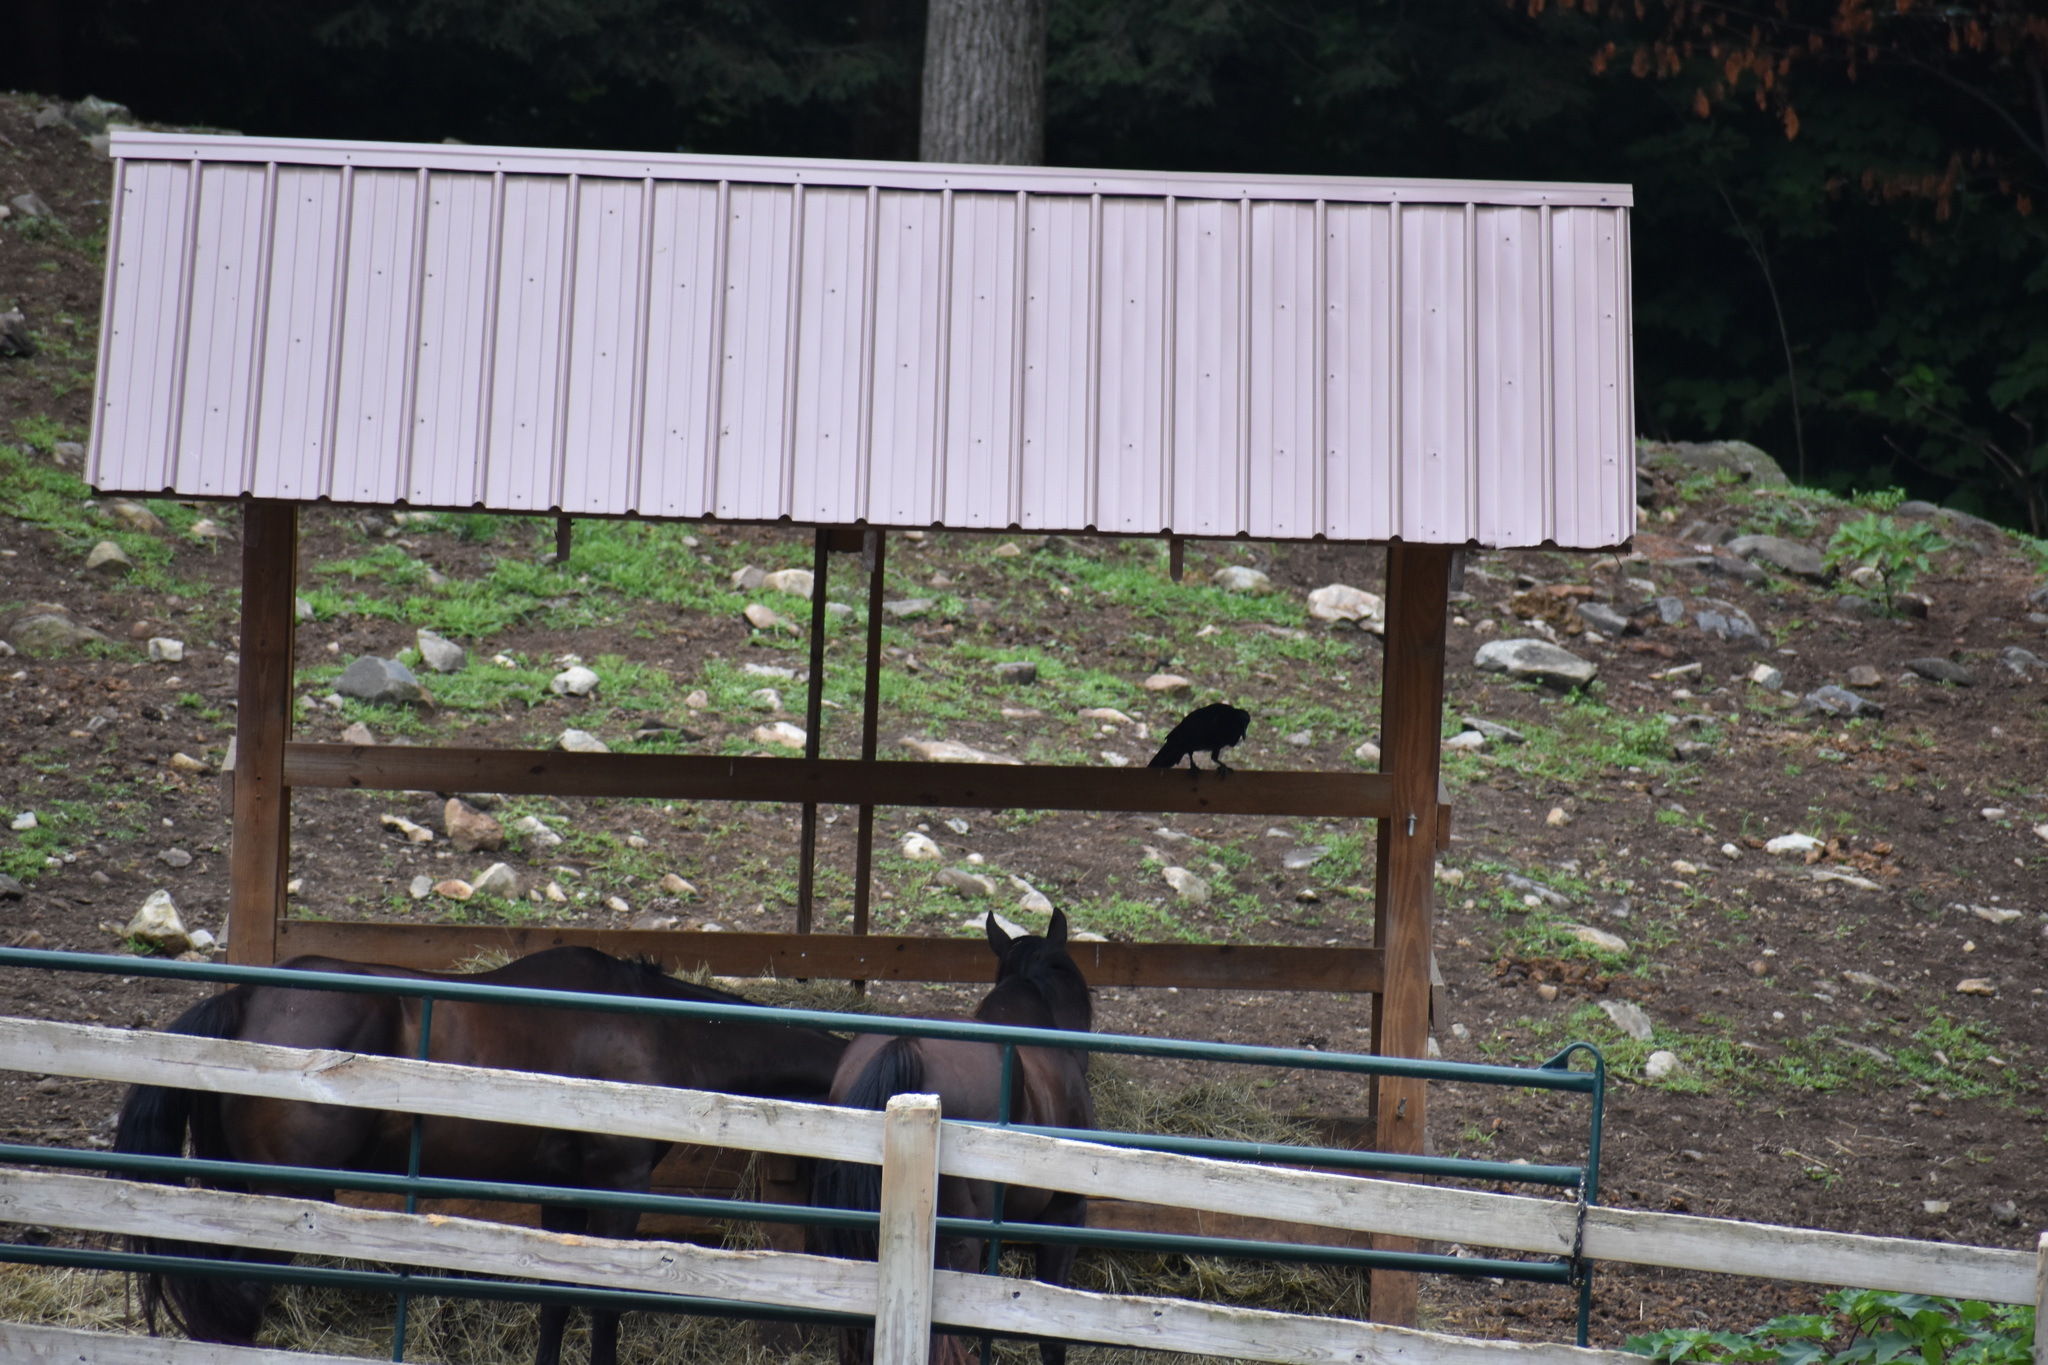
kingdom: Animalia
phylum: Chordata
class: Aves
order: Passeriformes
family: Corvidae
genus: Corvus
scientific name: Corvus corax
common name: Common raven
